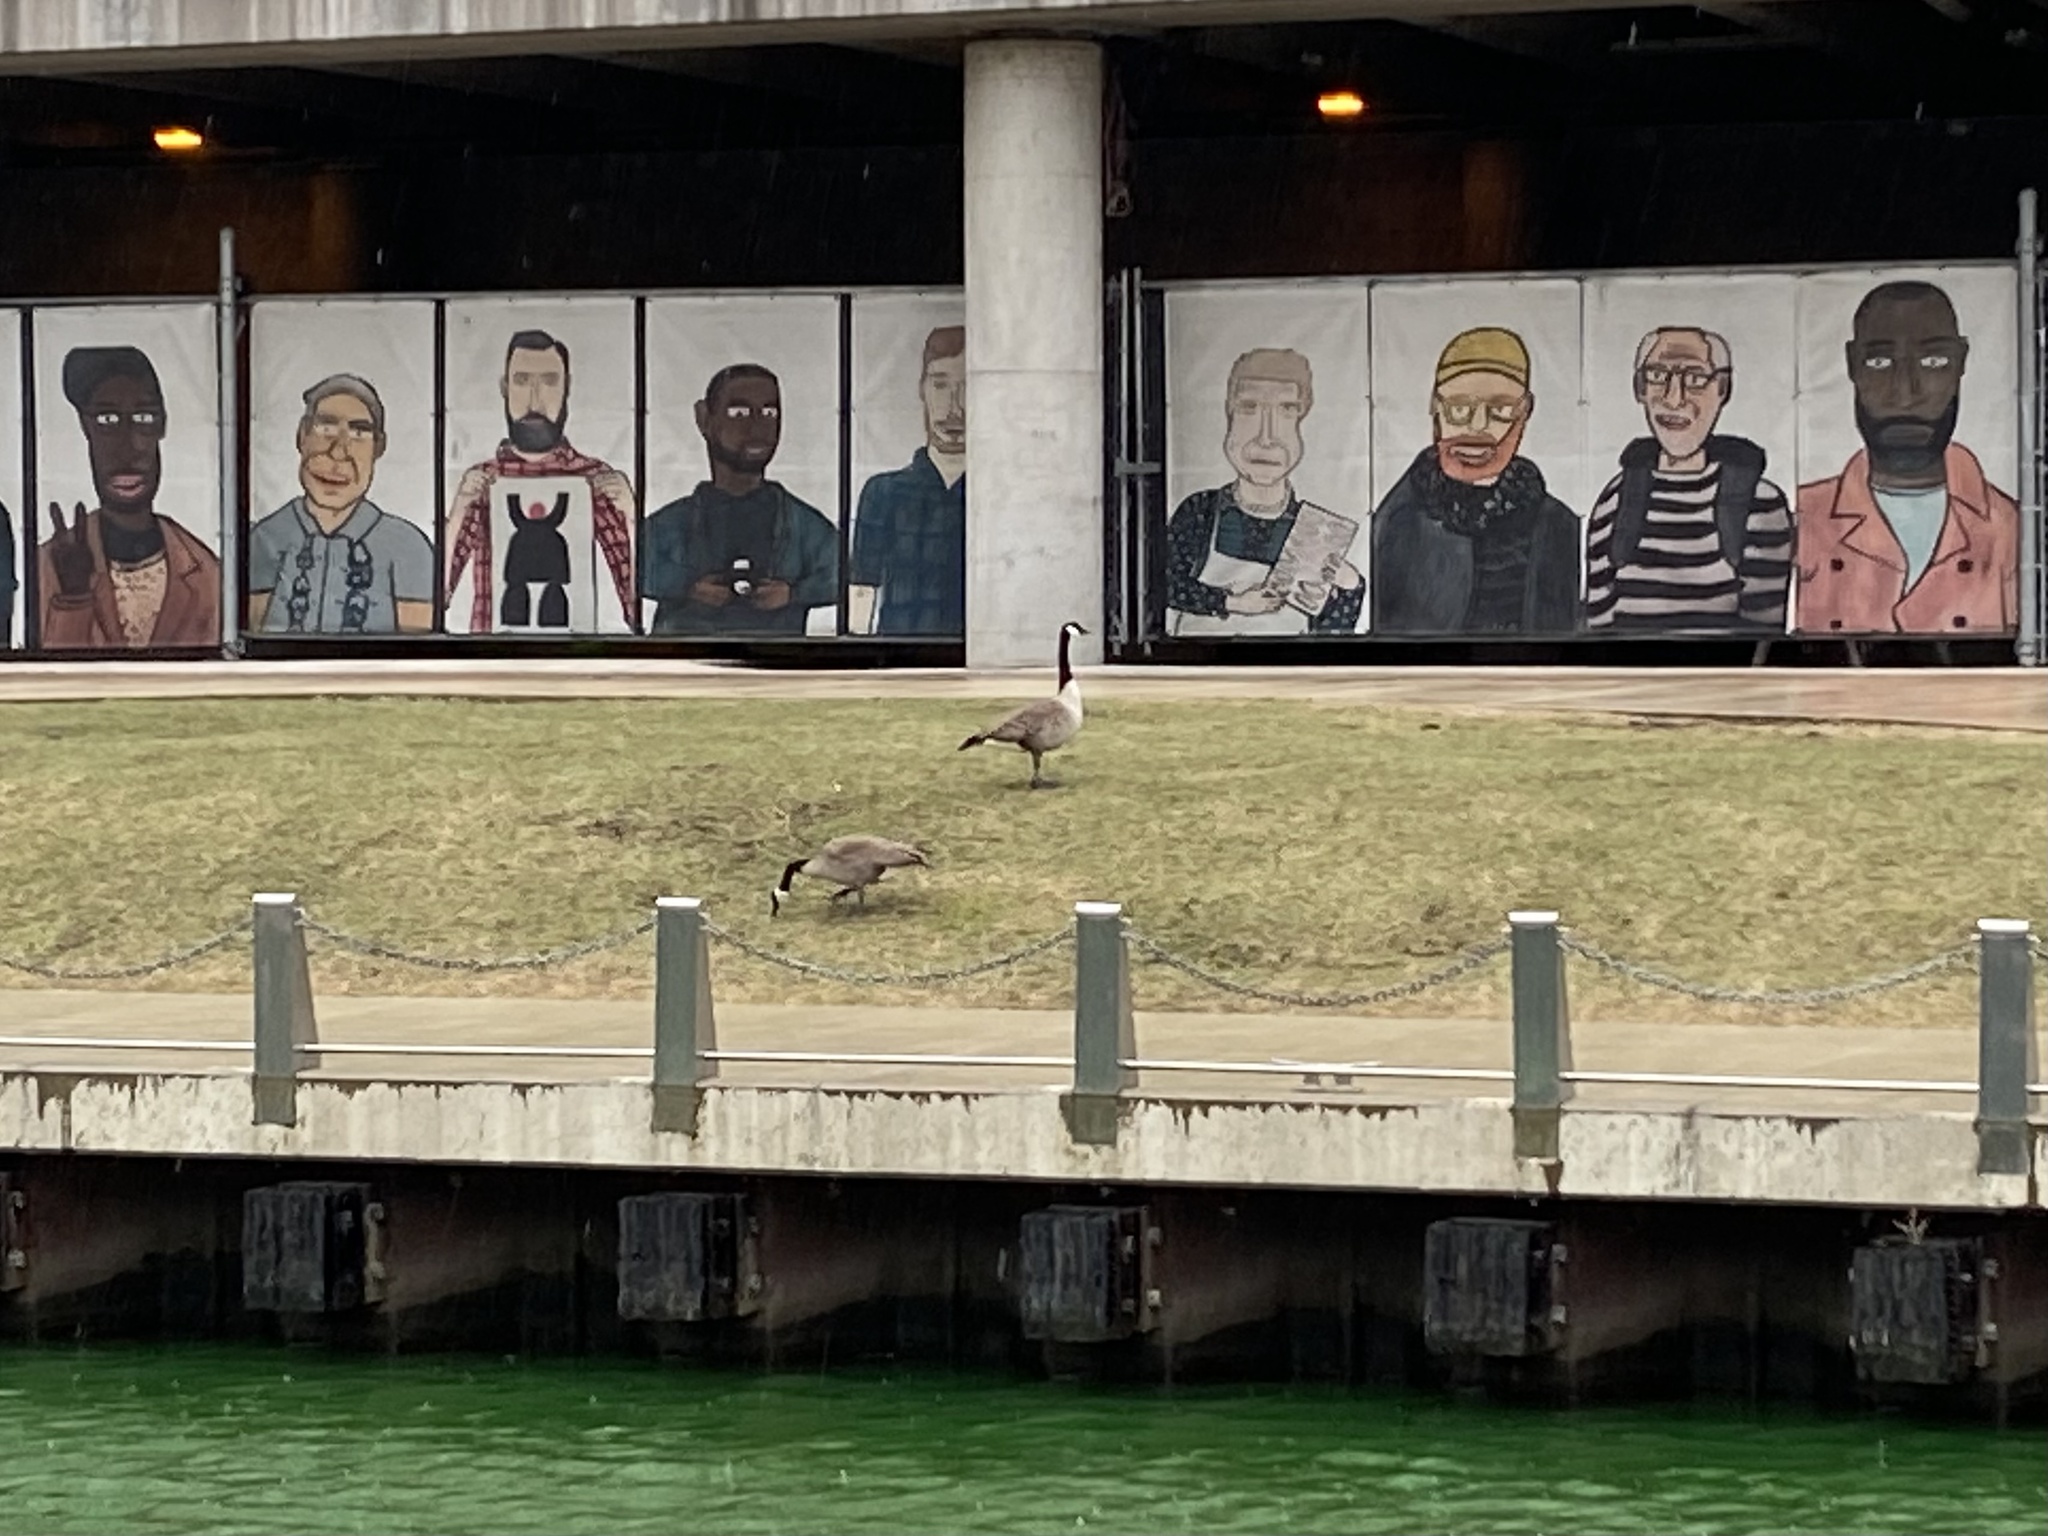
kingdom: Animalia
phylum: Chordata
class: Aves
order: Anseriformes
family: Anatidae
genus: Branta
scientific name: Branta canadensis
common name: Canada goose
